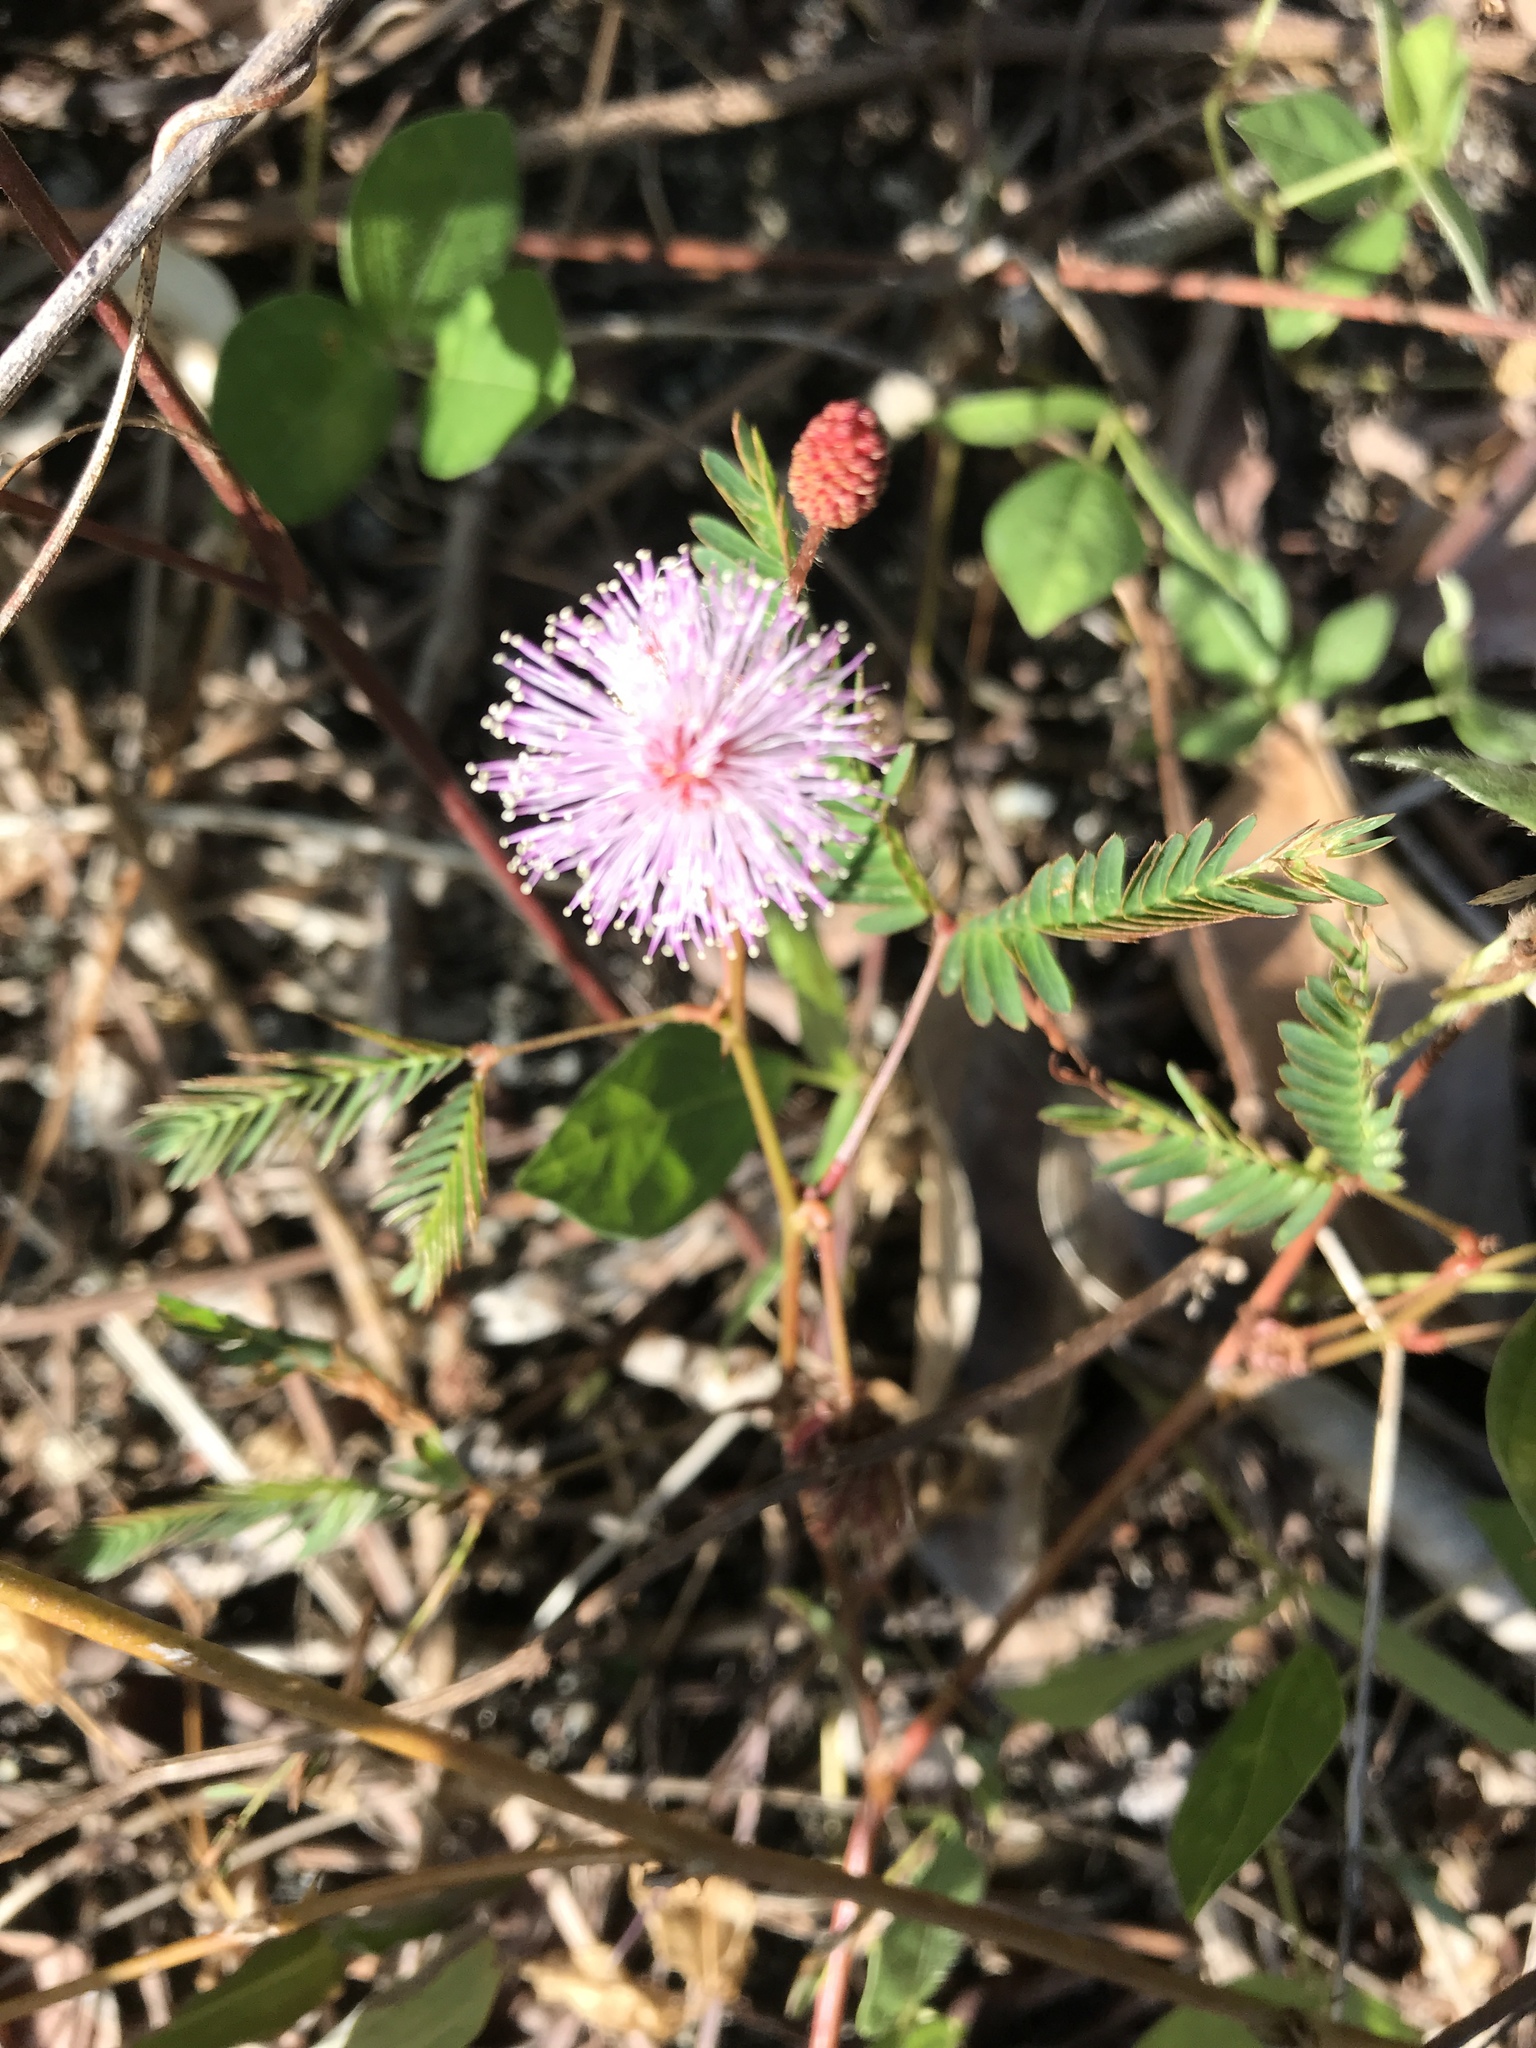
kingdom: Plantae
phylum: Tracheophyta
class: Magnoliopsida
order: Fabales
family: Fabaceae
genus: Mimosa
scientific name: Mimosa pudica
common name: Sensitive plant
